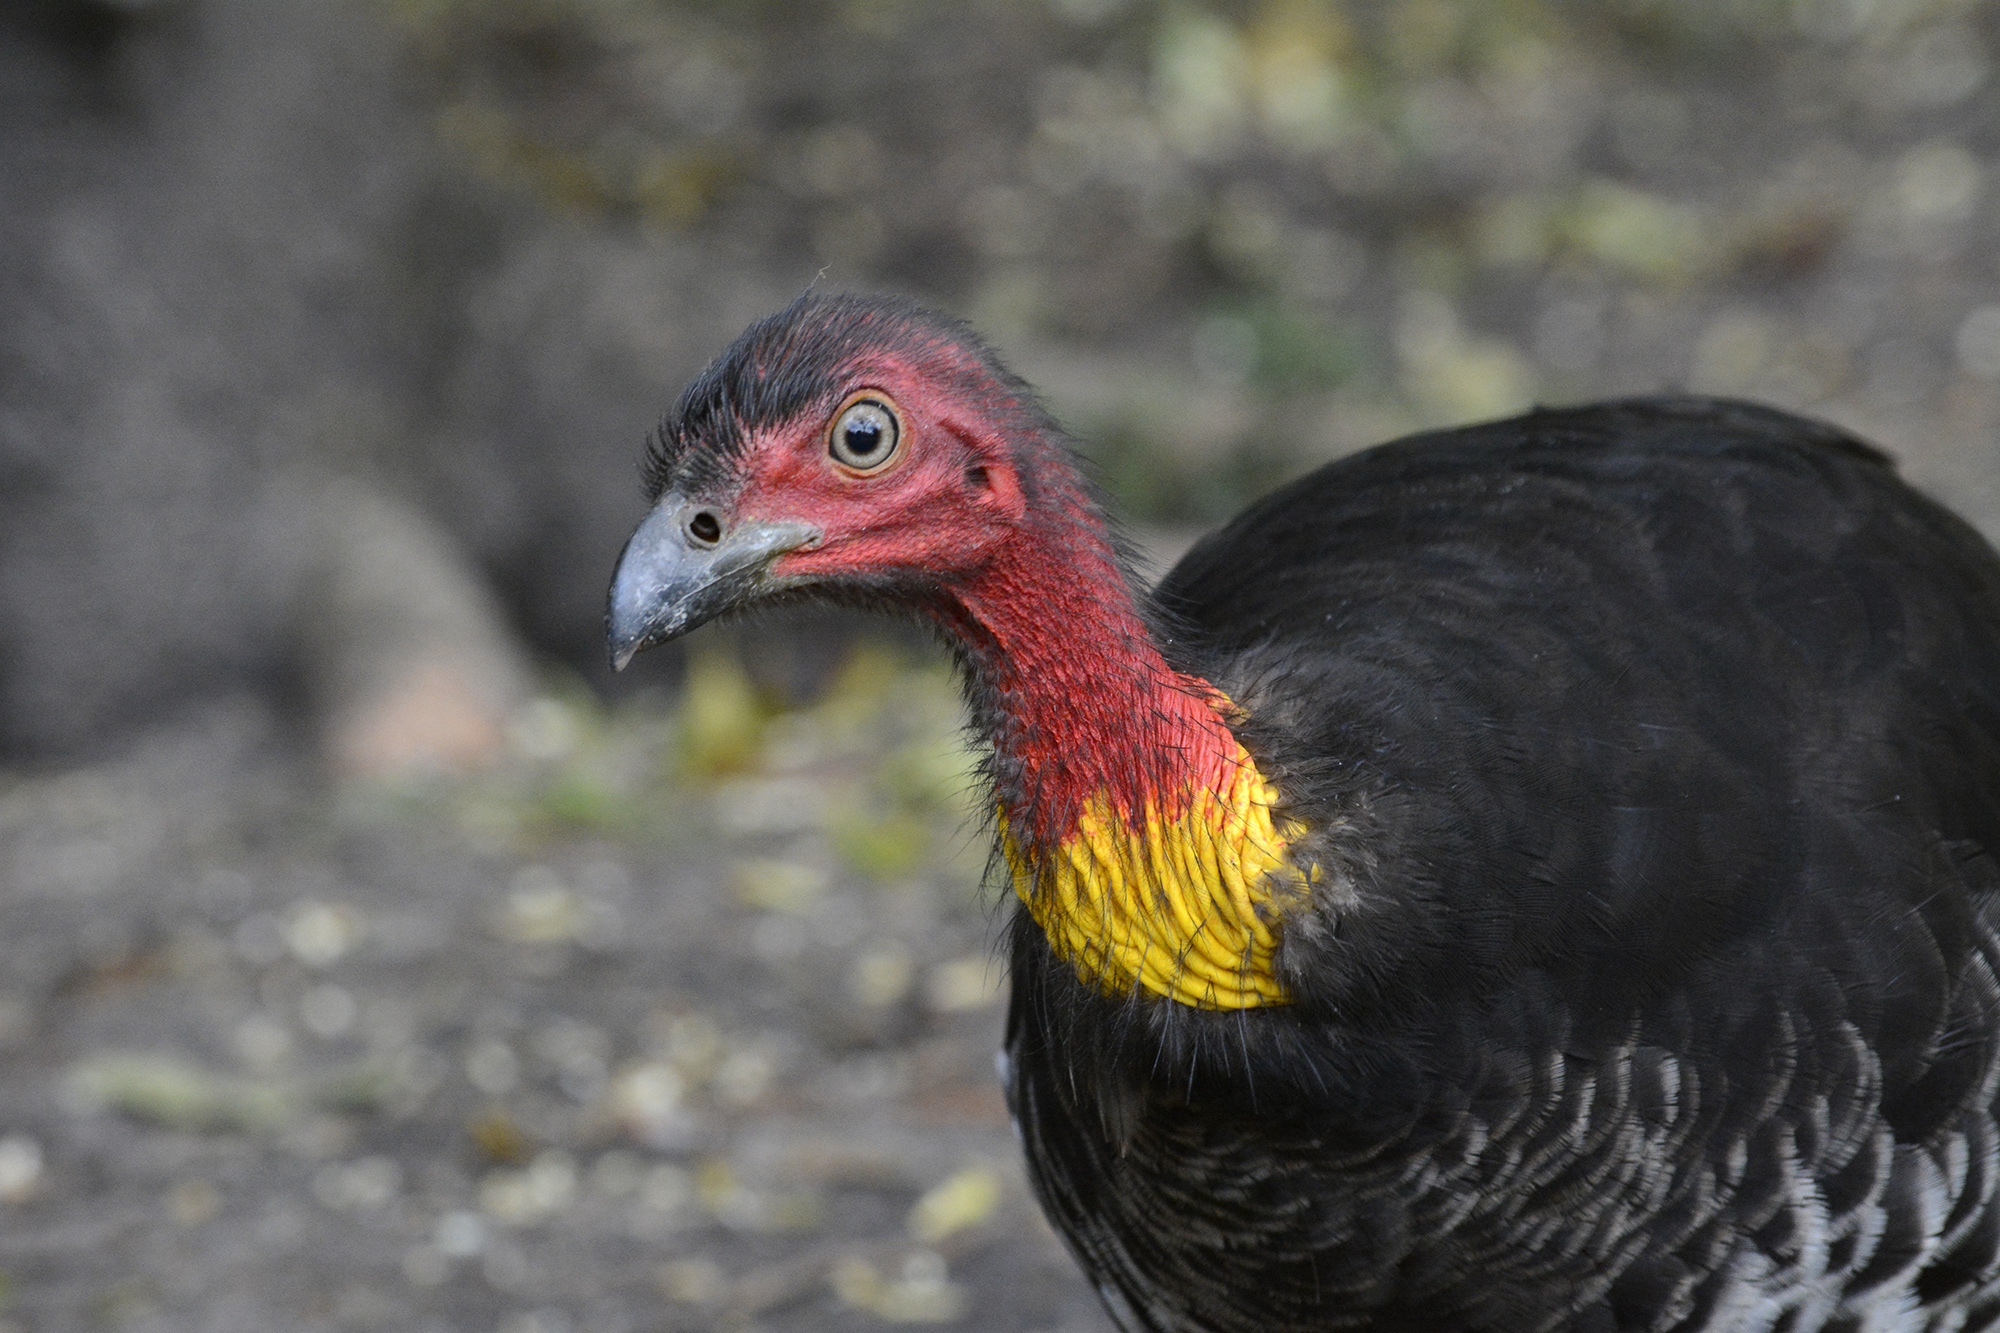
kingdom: Animalia
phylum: Chordata
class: Aves
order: Galliformes
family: Megapodiidae
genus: Alectura
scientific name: Alectura lathami
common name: Australian brushturkey
